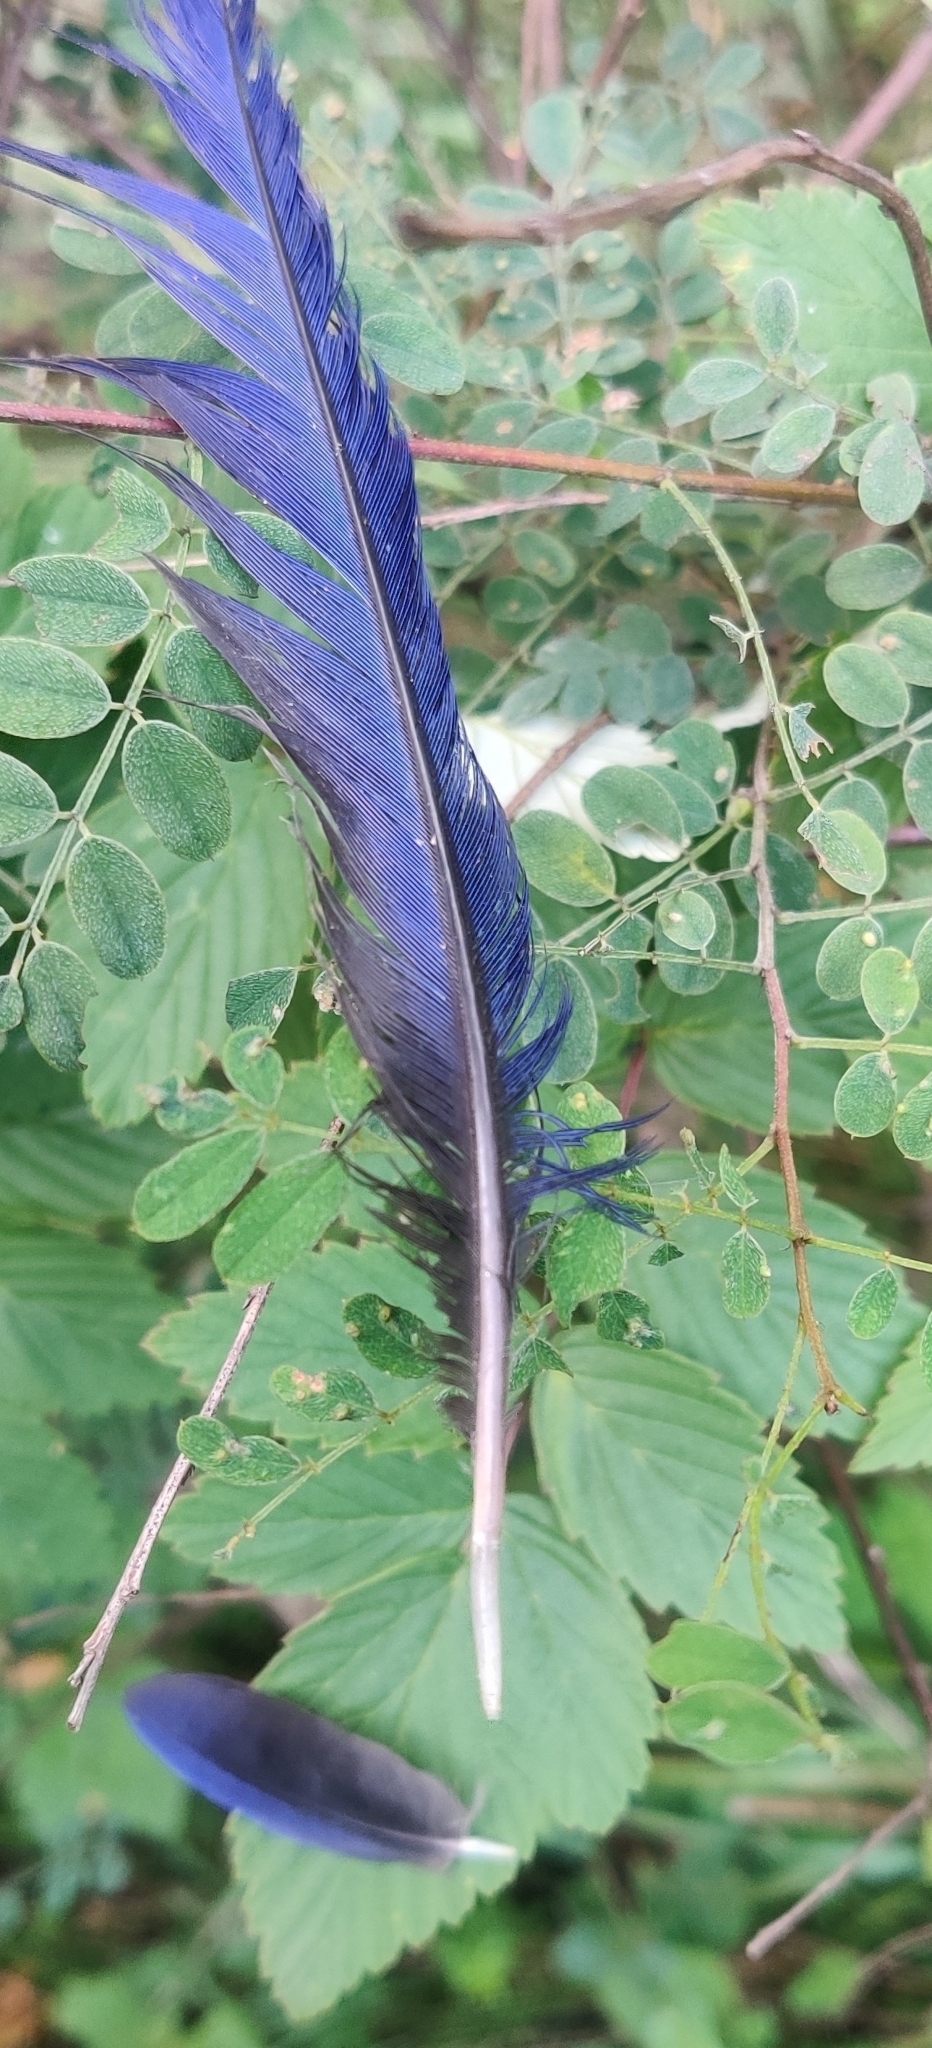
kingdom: Animalia
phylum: Chordata
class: Aves
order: Passeriformes
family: Muscicapidae
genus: Myophonus
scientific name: Myophonus caeruleus
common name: Blue whistling-thrush
